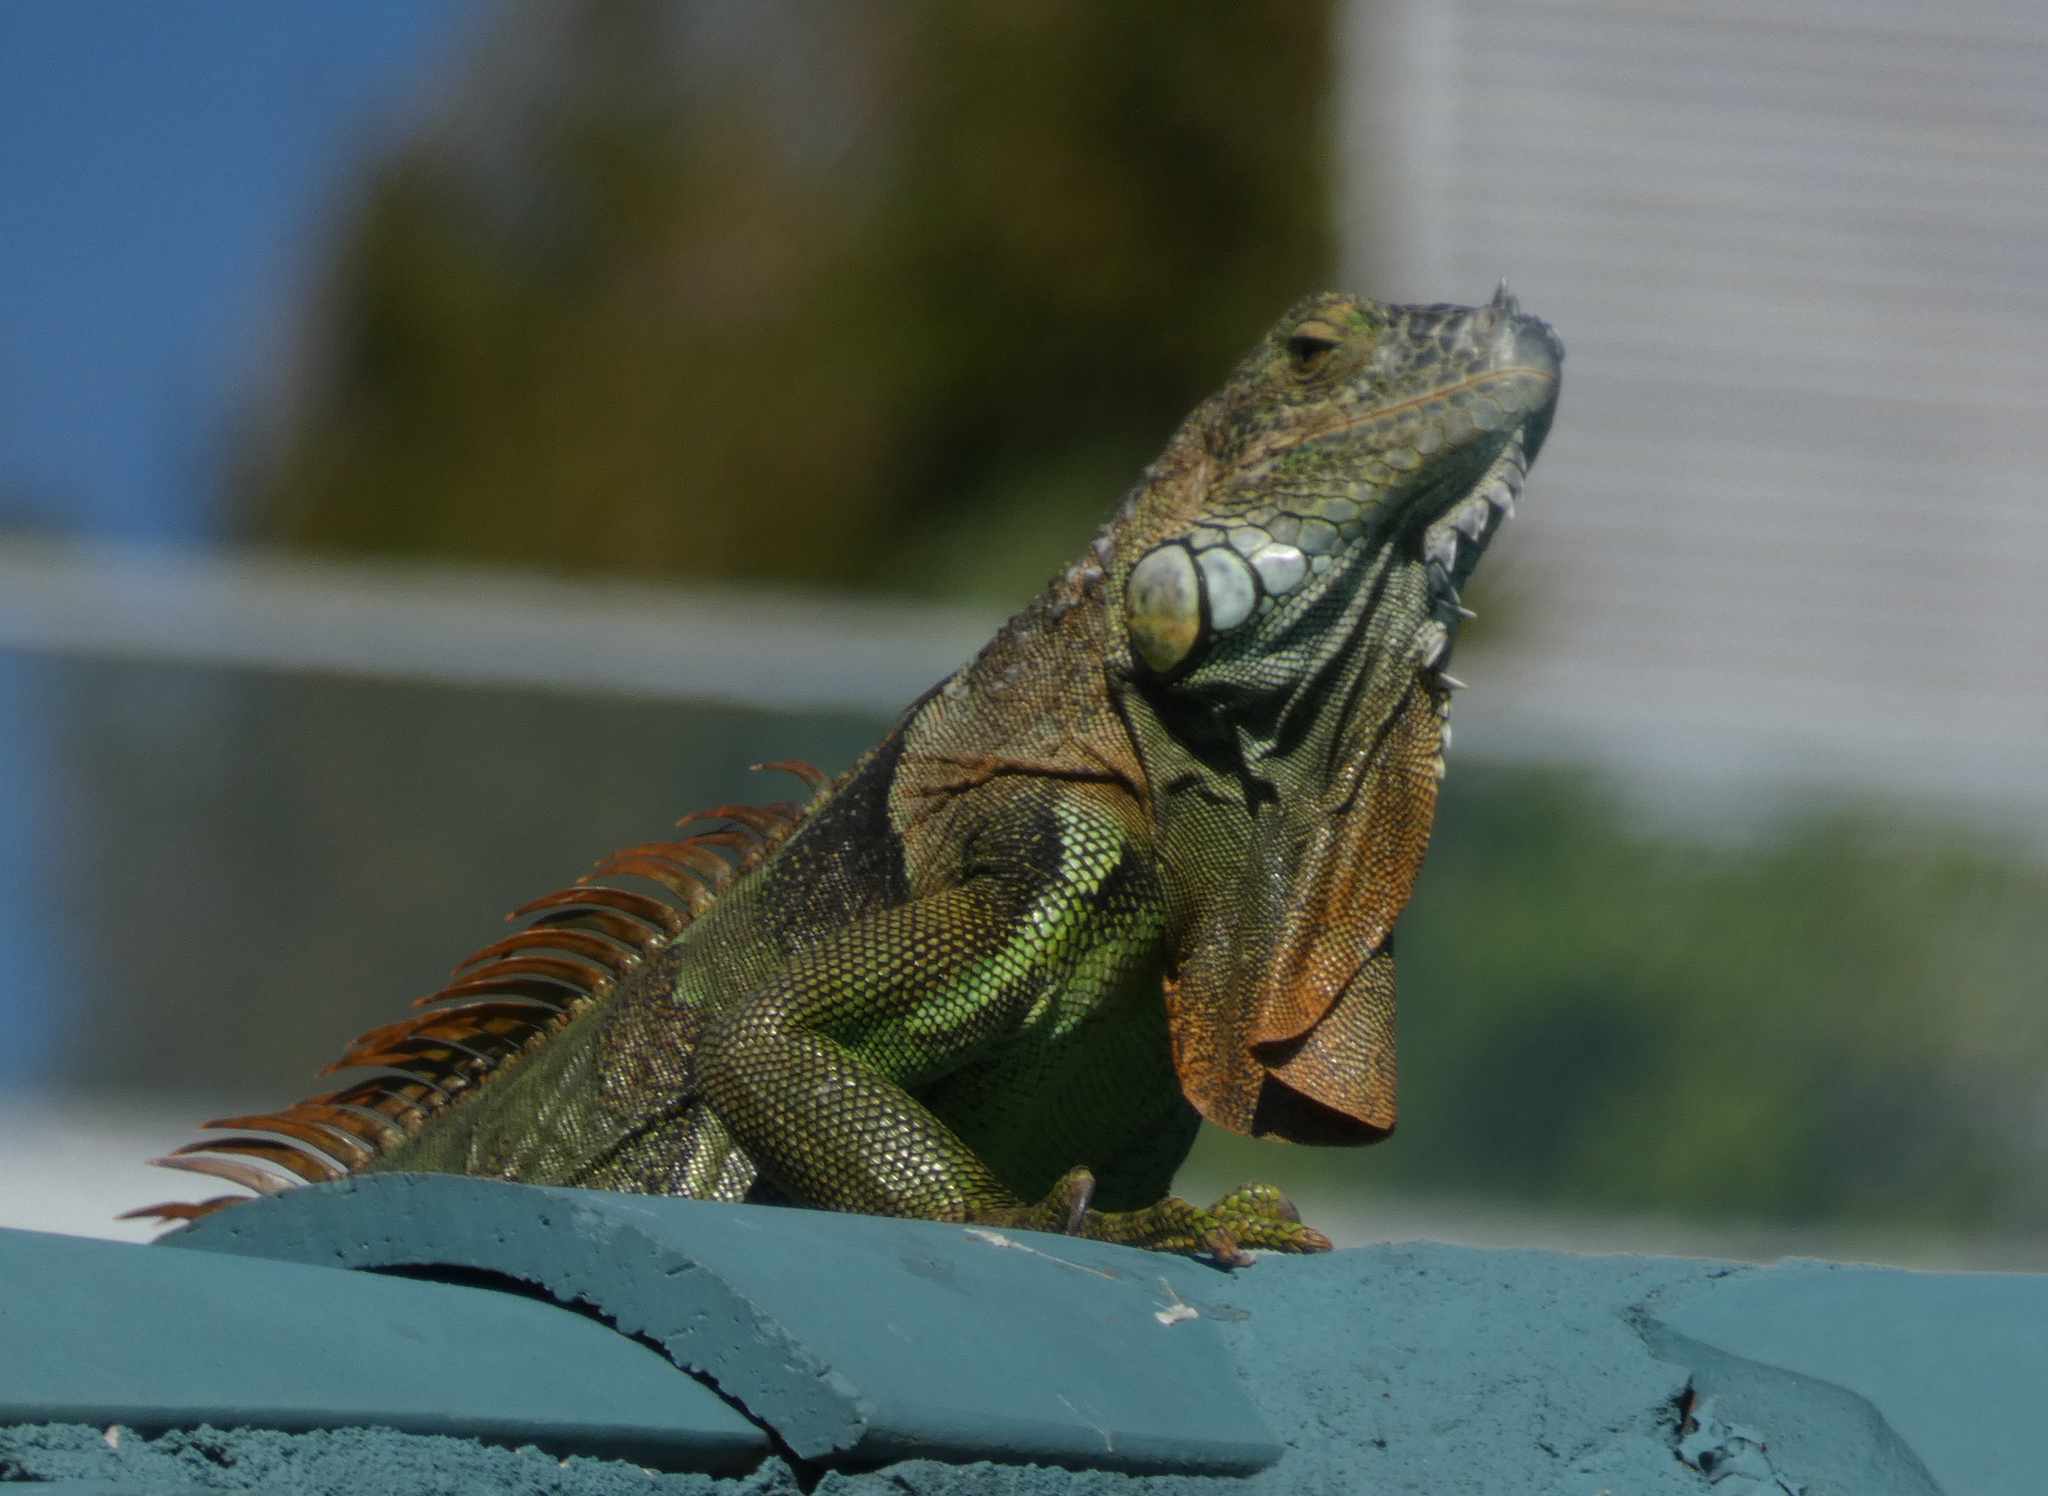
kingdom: Animalia
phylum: Chordata
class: Squamata
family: Iguanidae
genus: Iguana
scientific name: Iguana iguana
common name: Green iguana
